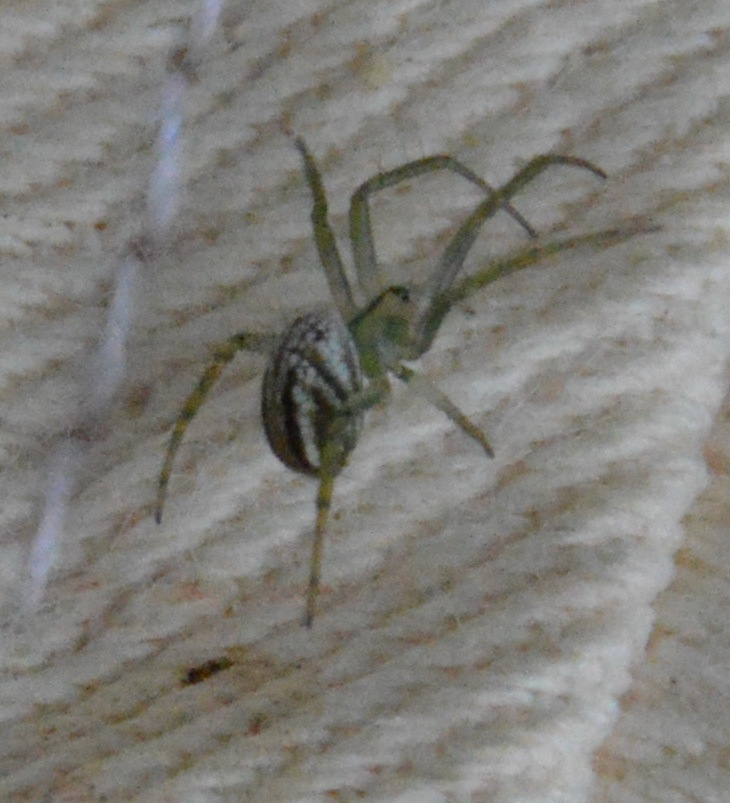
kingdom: Animalia
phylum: Arthropoda
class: Arachnida
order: Araneae
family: Araneidae
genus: Mangora
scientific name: Mangora gibberosa
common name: Lined orbweaver
